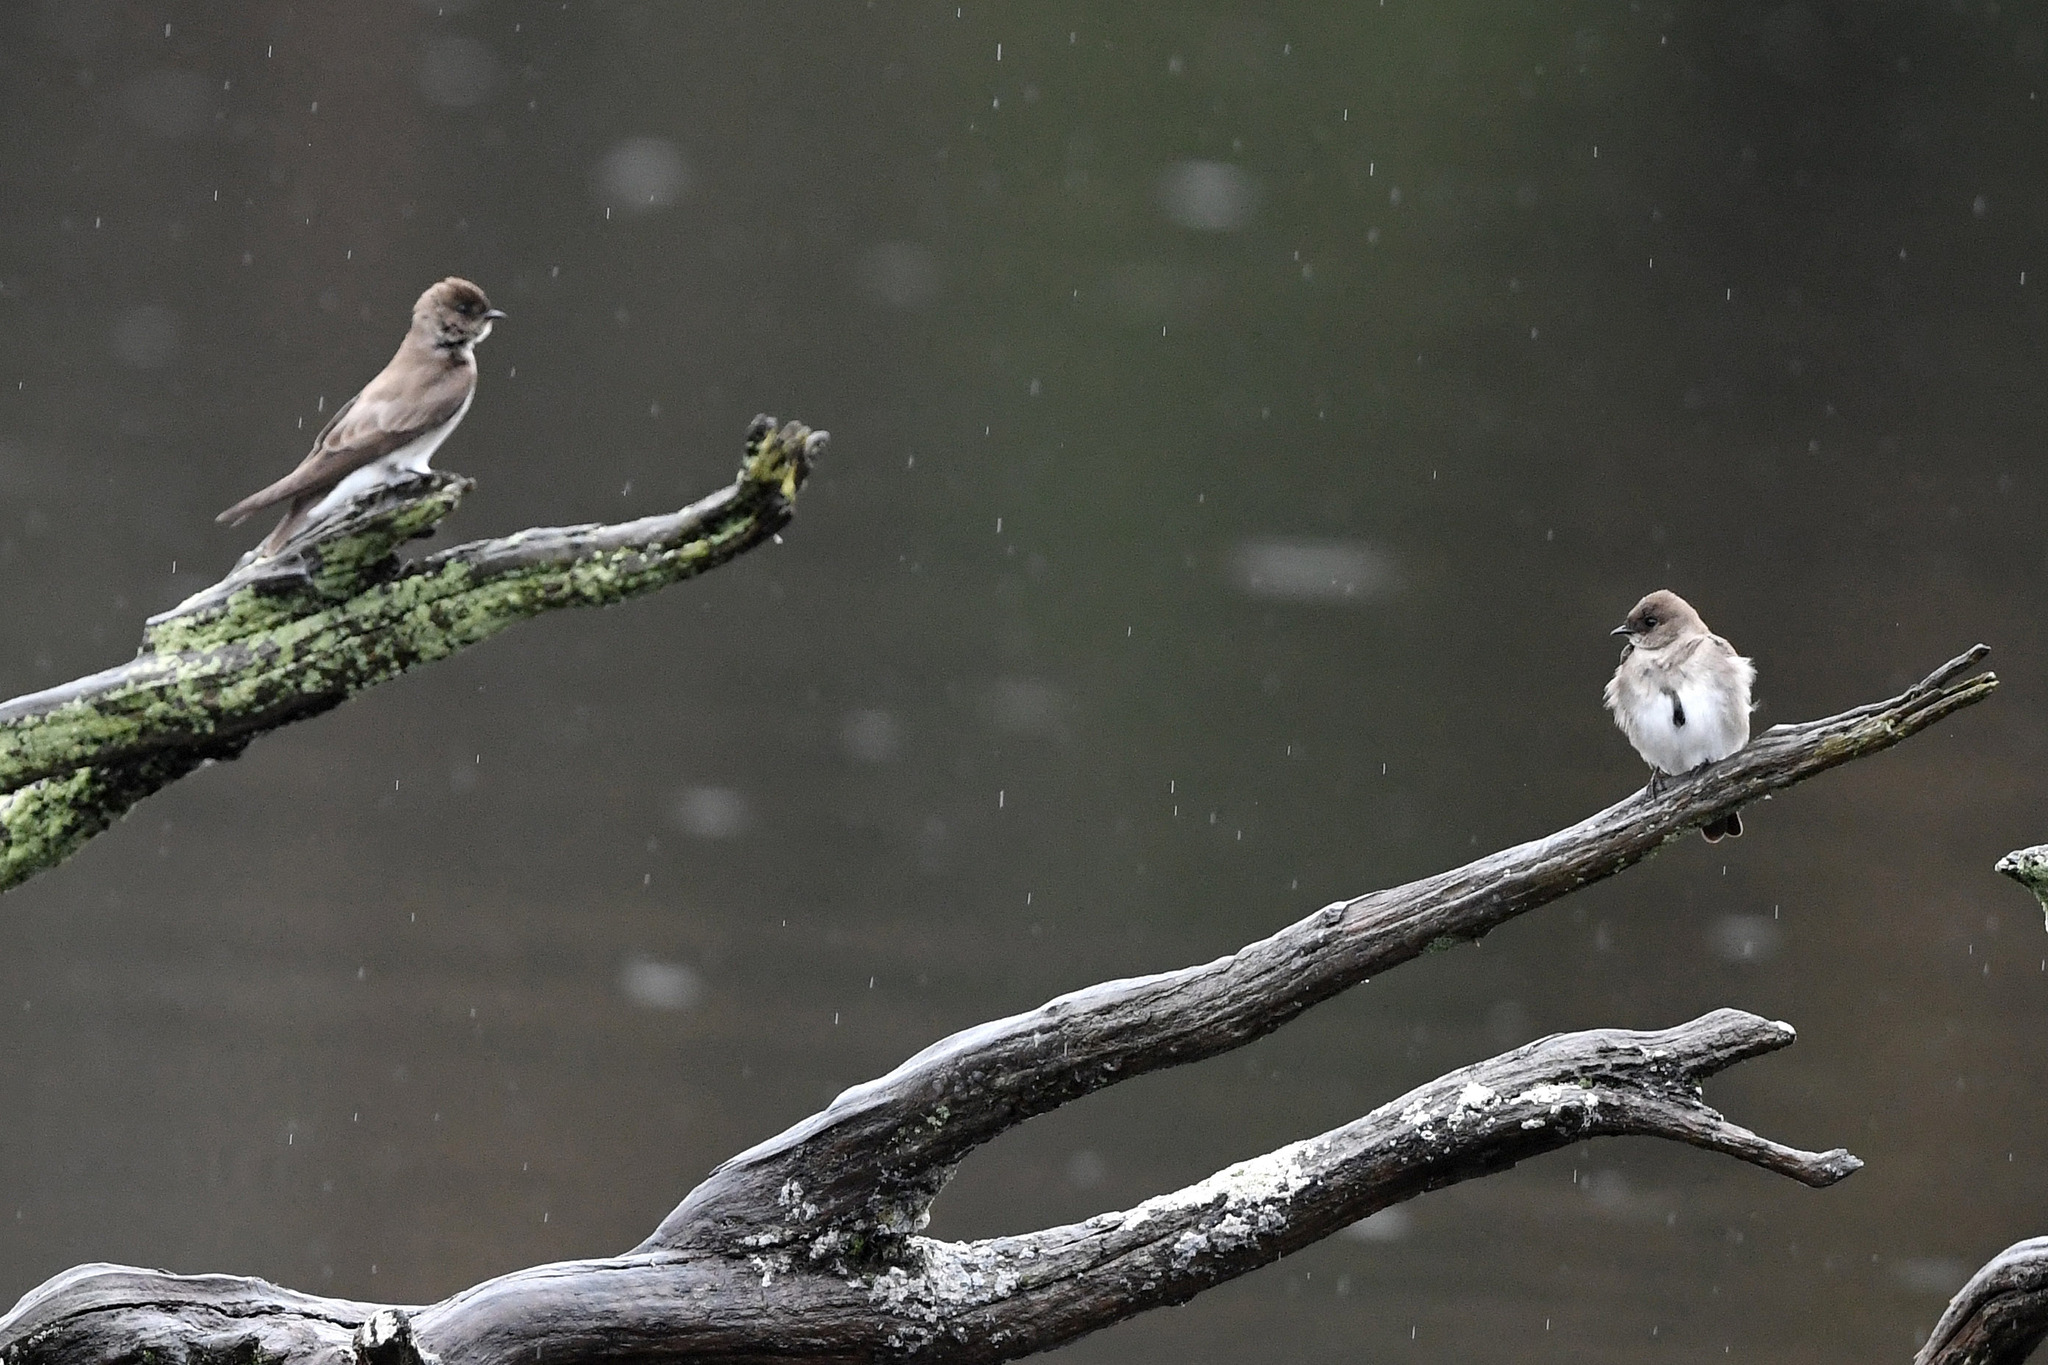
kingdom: Animalia
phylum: Chordata
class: Aves
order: Passeriformes
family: Hirundinidae
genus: Stelgidopteryx
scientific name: Stelgidopteryx serripennis
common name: Northern rough-winged swallow
